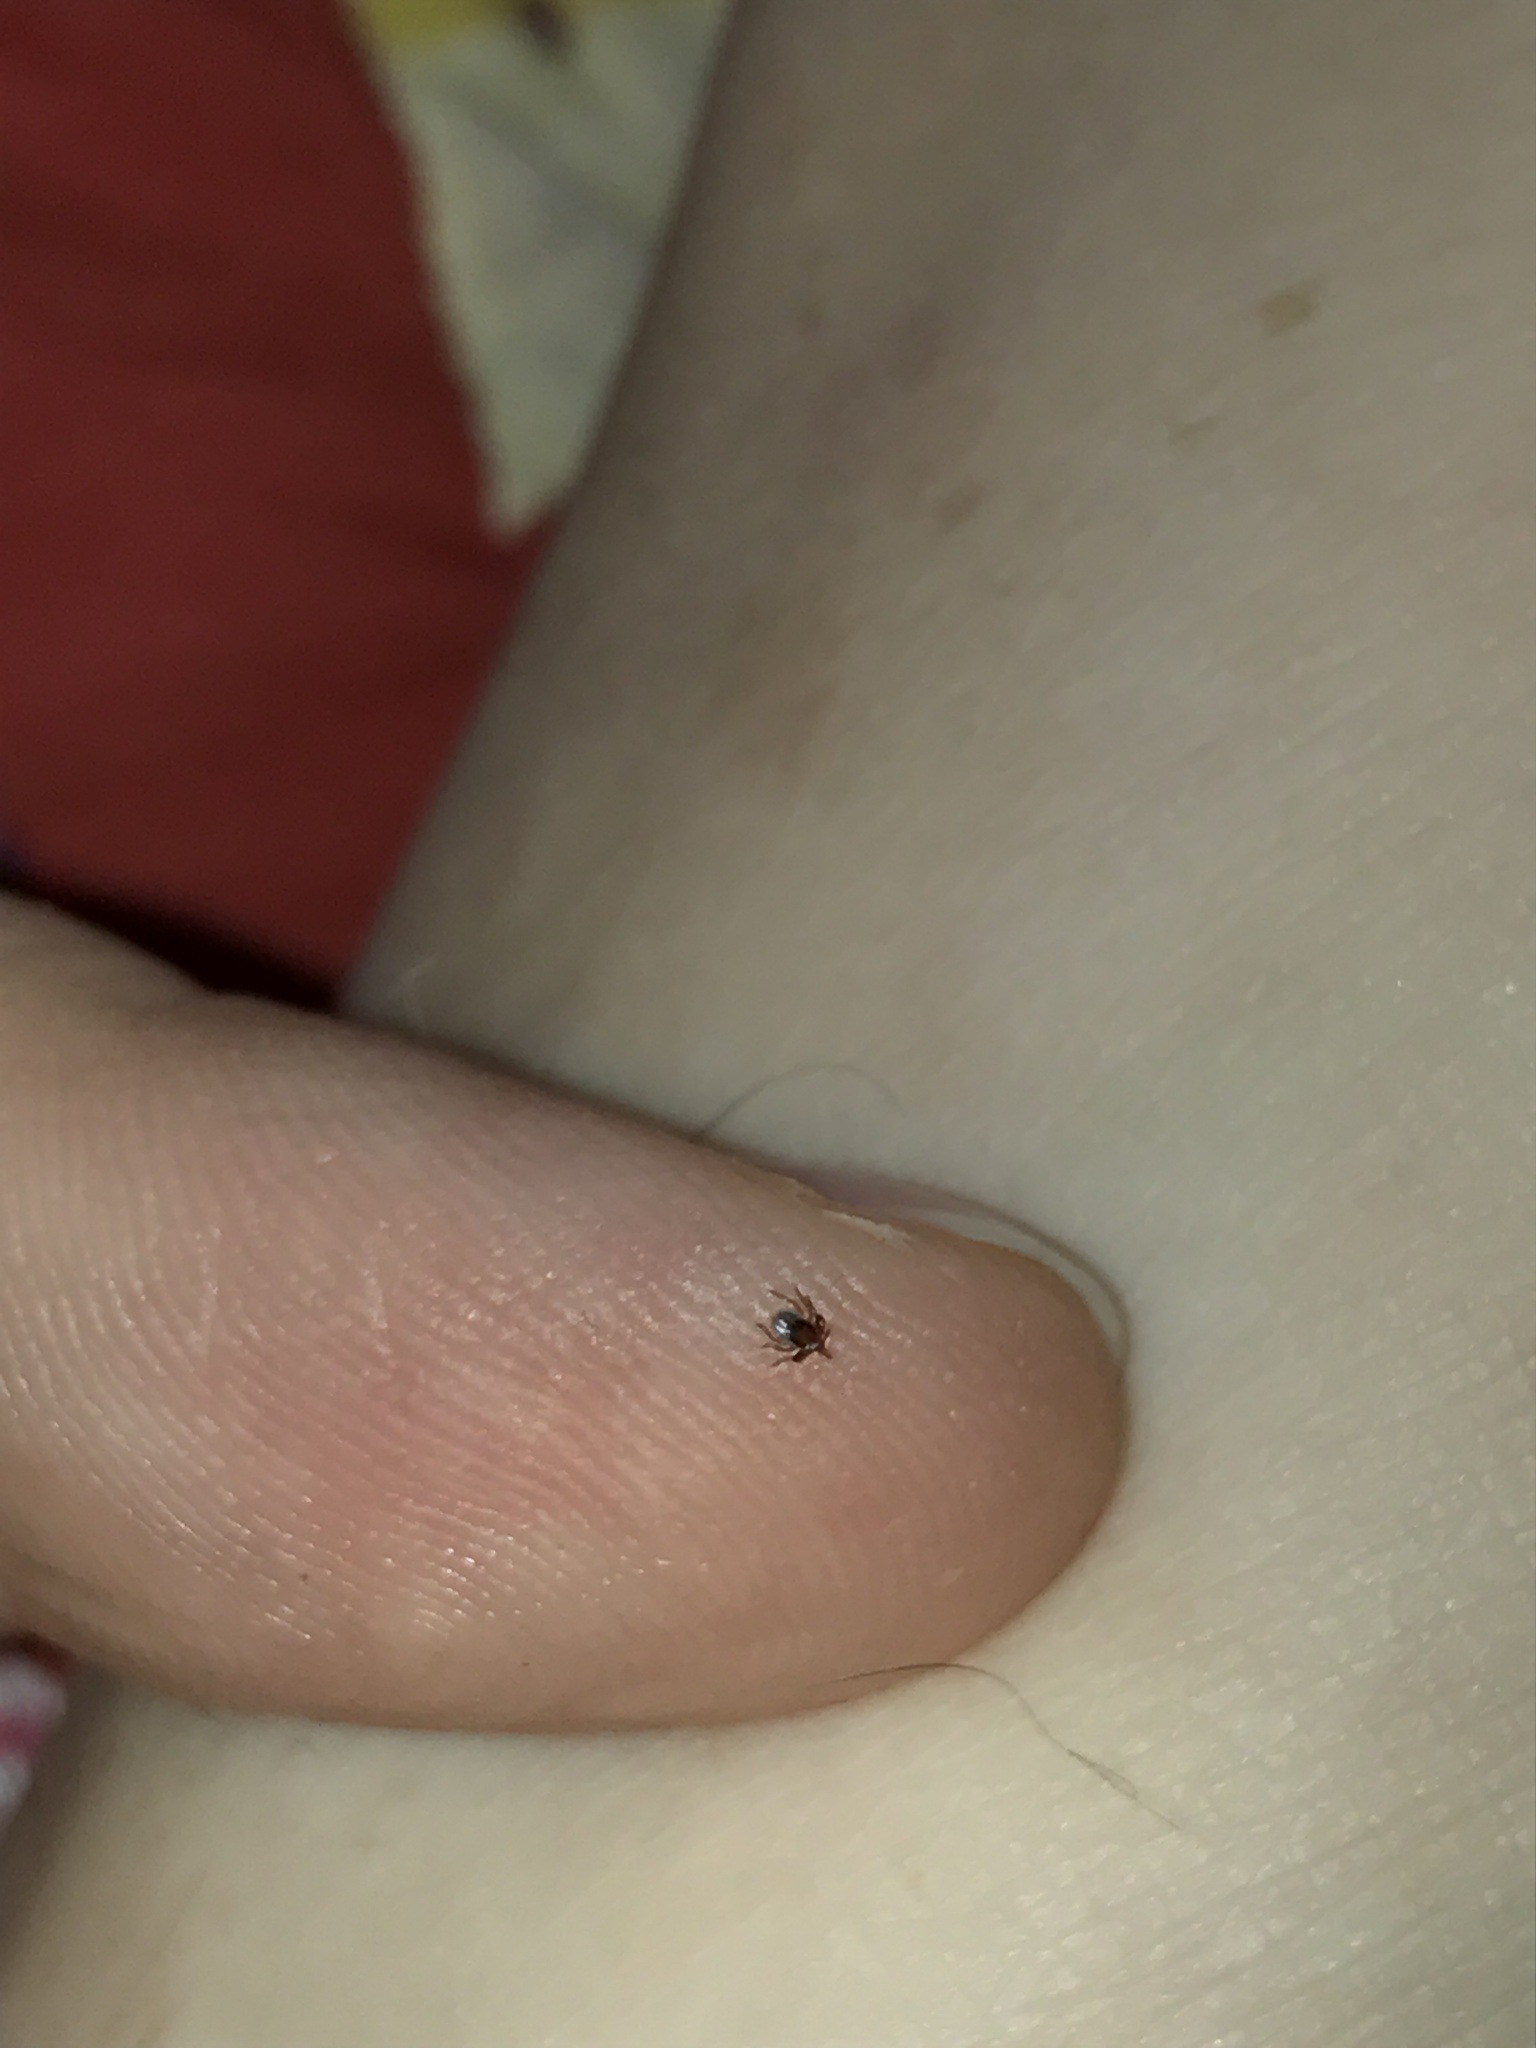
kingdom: Animalia
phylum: Arthropoda
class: Arachnida
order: Ixodida
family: Ixodidae
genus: Ixodes
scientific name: Ixodes scapularis
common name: Black legged tick
